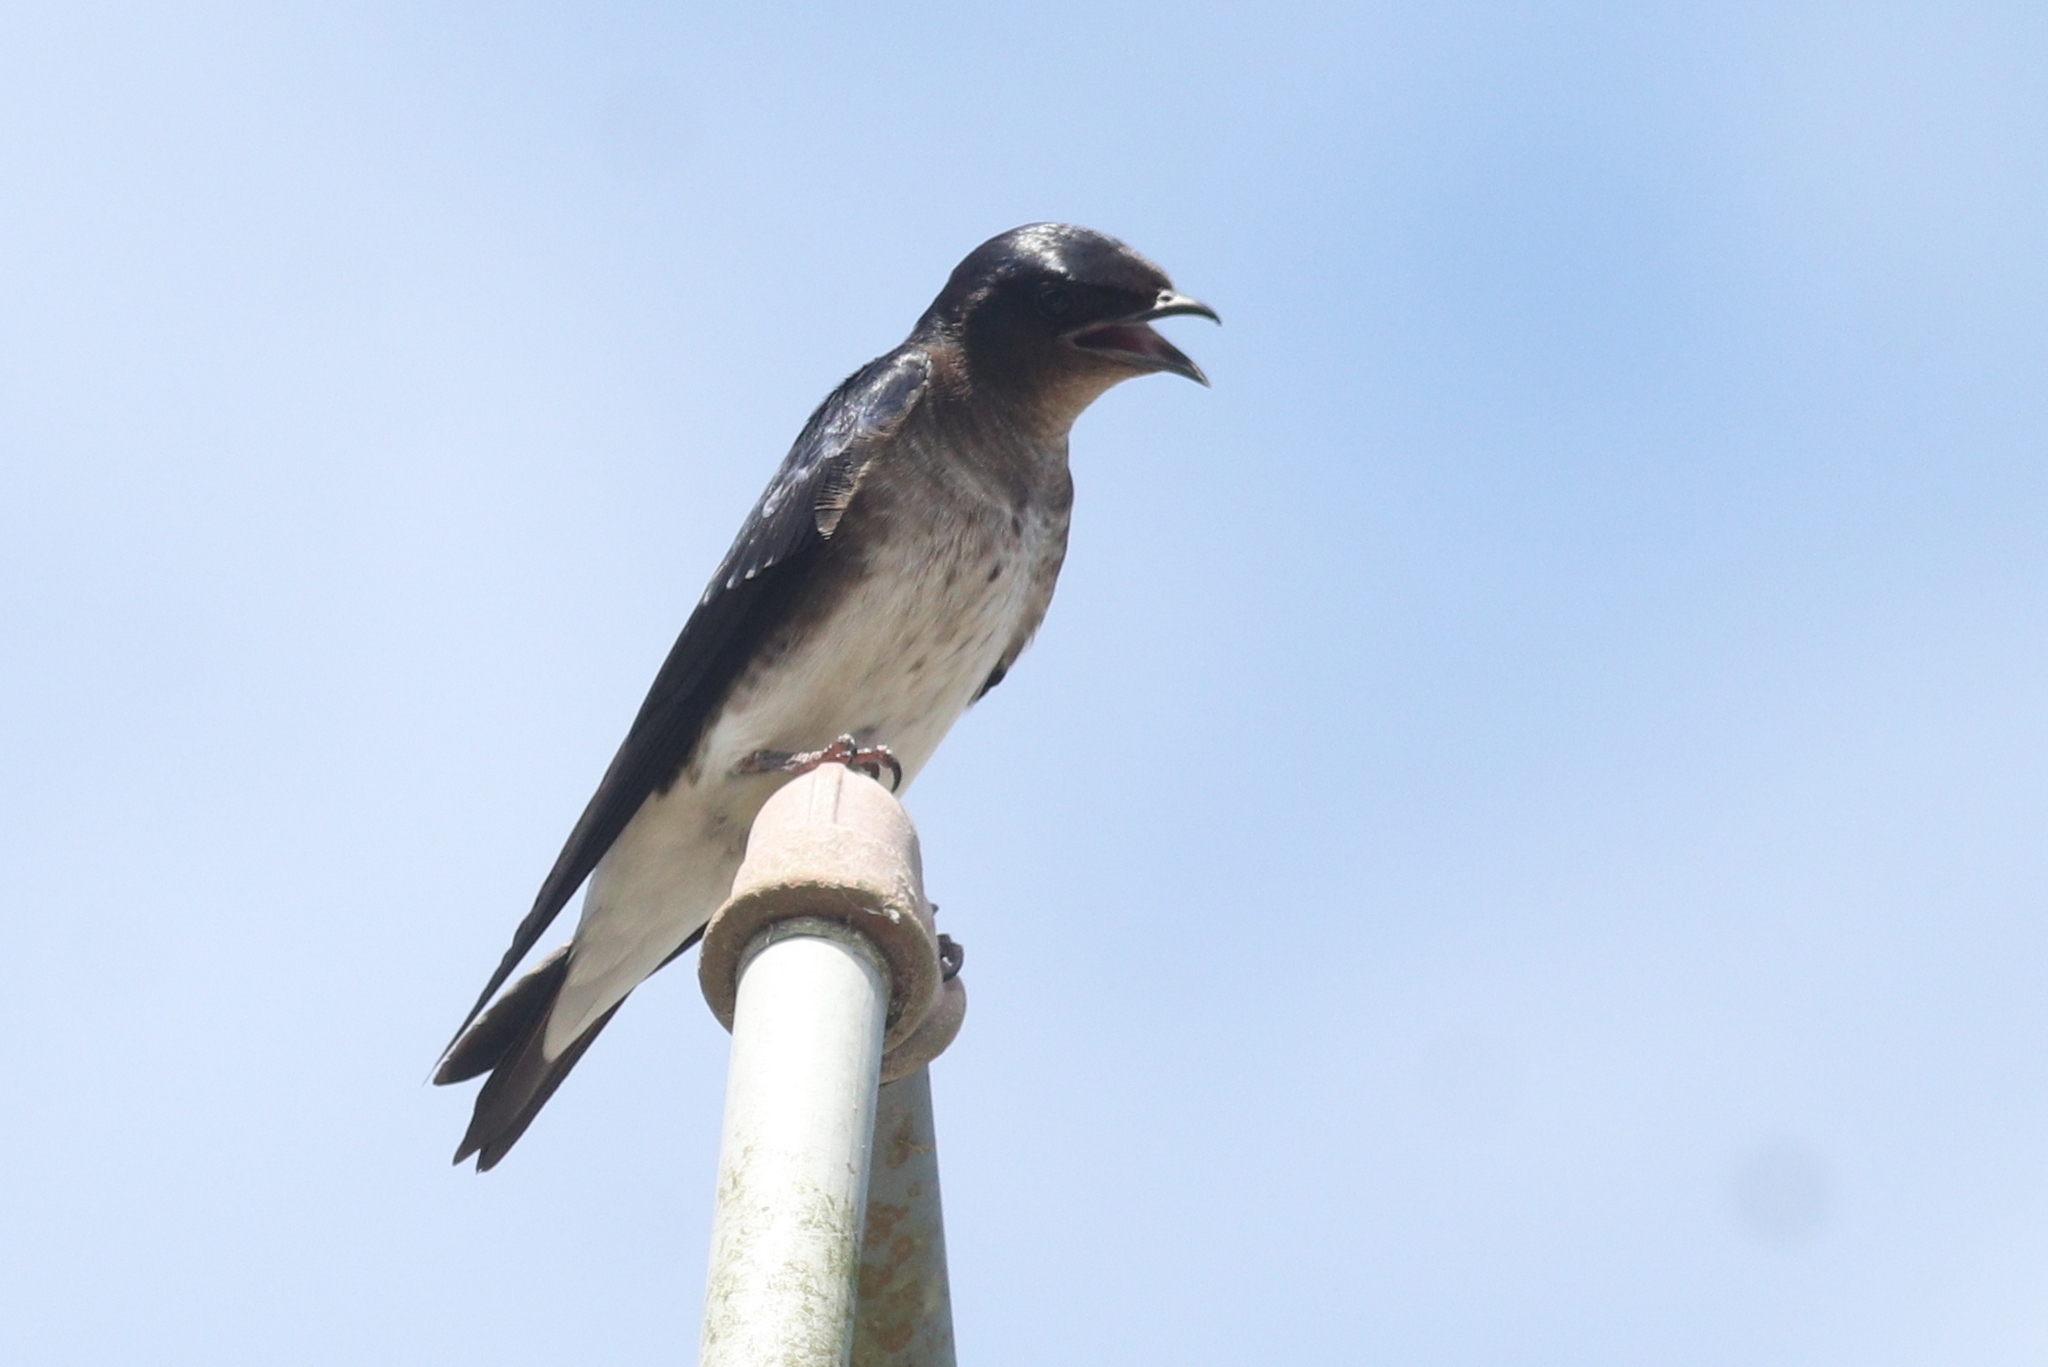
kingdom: Animalia
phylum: Chordata
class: Aves
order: Passeriformes
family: Hirundinidae
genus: Progne
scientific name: Progne chalybea
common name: Grey-breasted martin
